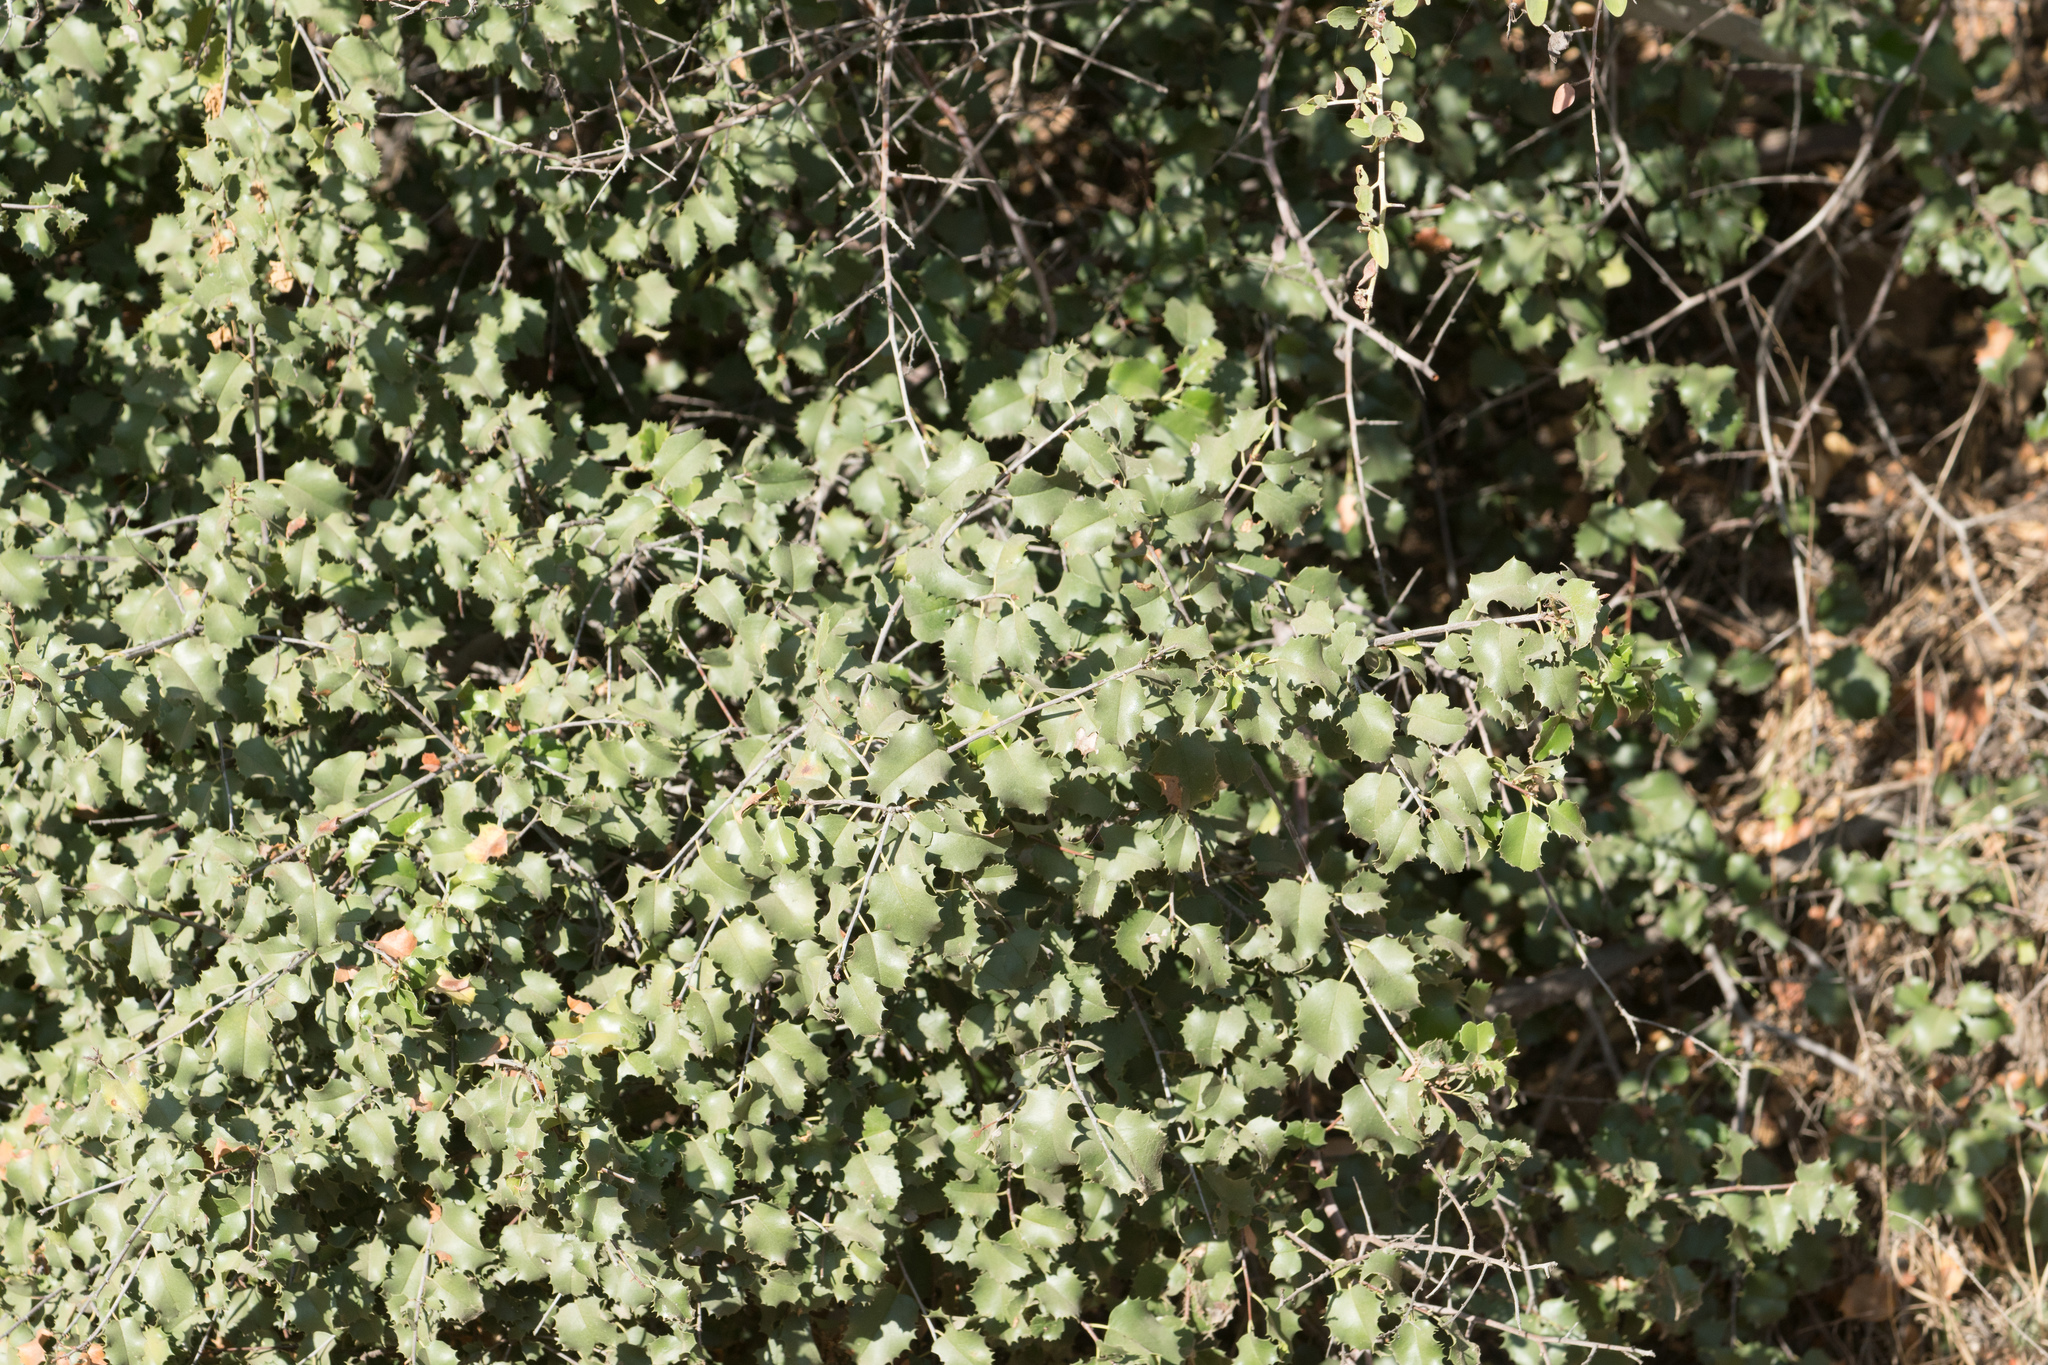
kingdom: Plantae
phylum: Tracheophyta
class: Magnoliopsida
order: Rosales
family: Rosaceae
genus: Prunus
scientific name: Prunus ilicifolia
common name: Hollyleaf cherry
